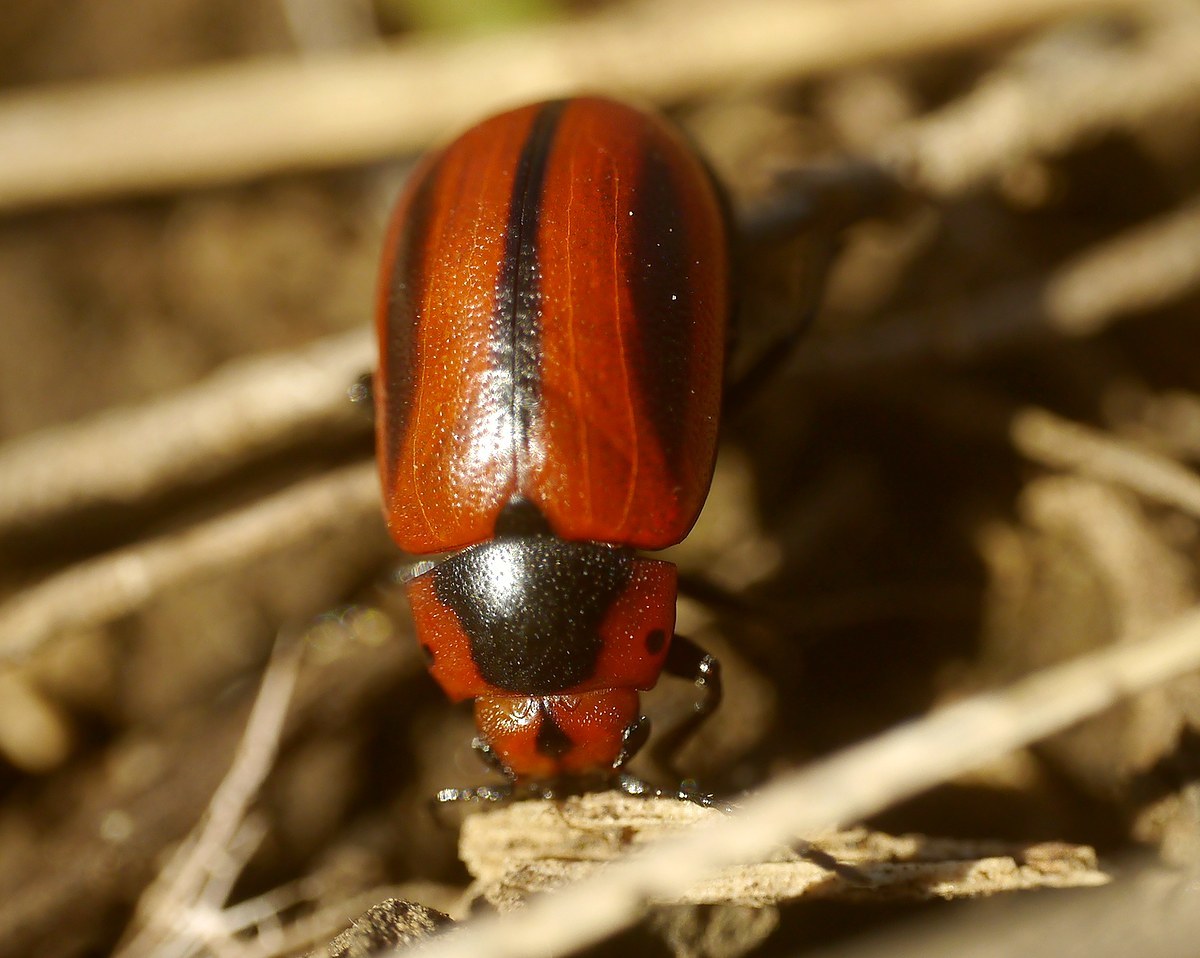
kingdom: Animalia
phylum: Arthropoda
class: Insecta
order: Coleoptera
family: Chrysomelidae
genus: Entomoscelis
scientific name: Entomoscelis adonidis
